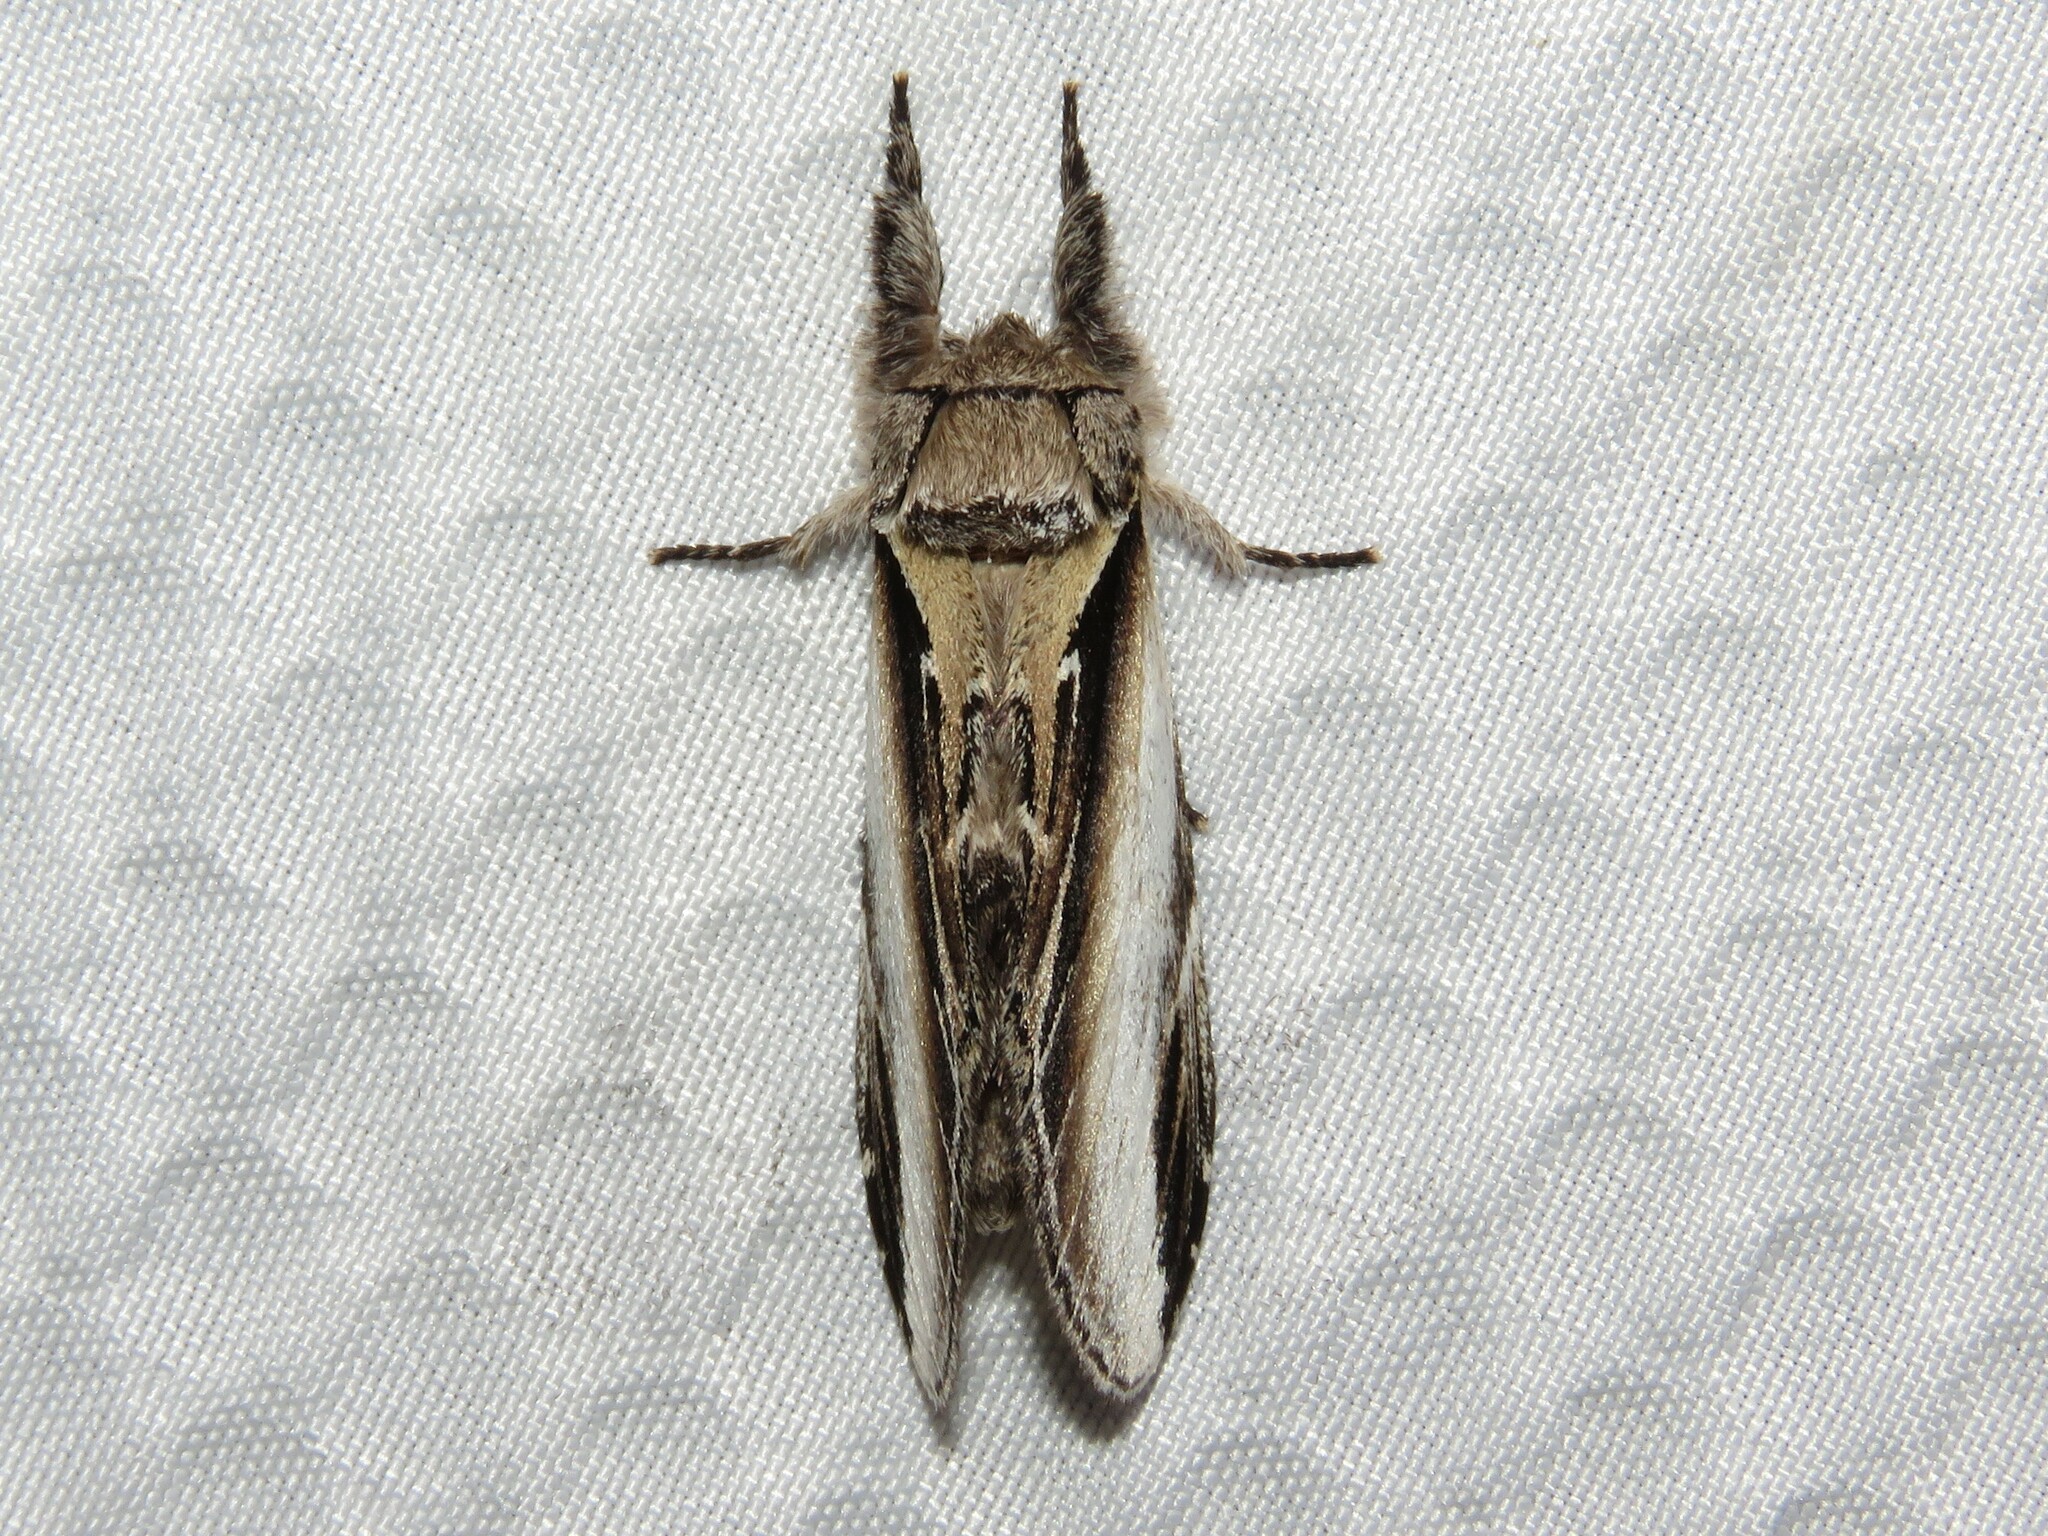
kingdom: Animalia
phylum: Arthropoda
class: Insecta
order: Lepidoptera
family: Notodontidae
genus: Pheosia
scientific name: Pheosia rimosa
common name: Black-rimmed prominent
